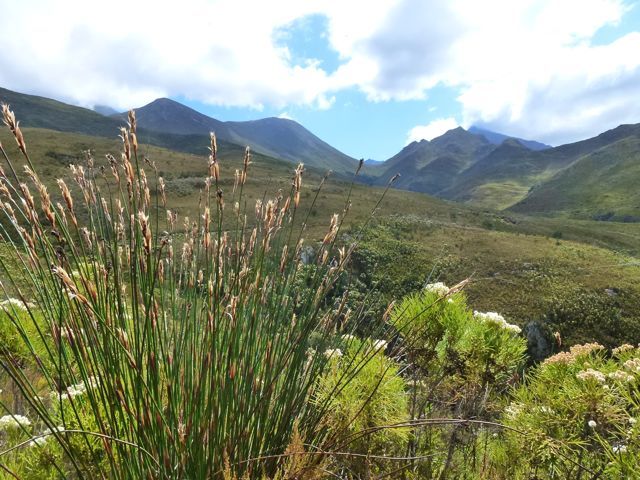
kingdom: Plantae
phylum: Tracheophyta
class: Liliopsida
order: Poales
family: Restionaceae
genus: Elegia
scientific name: Elegia mucronata
